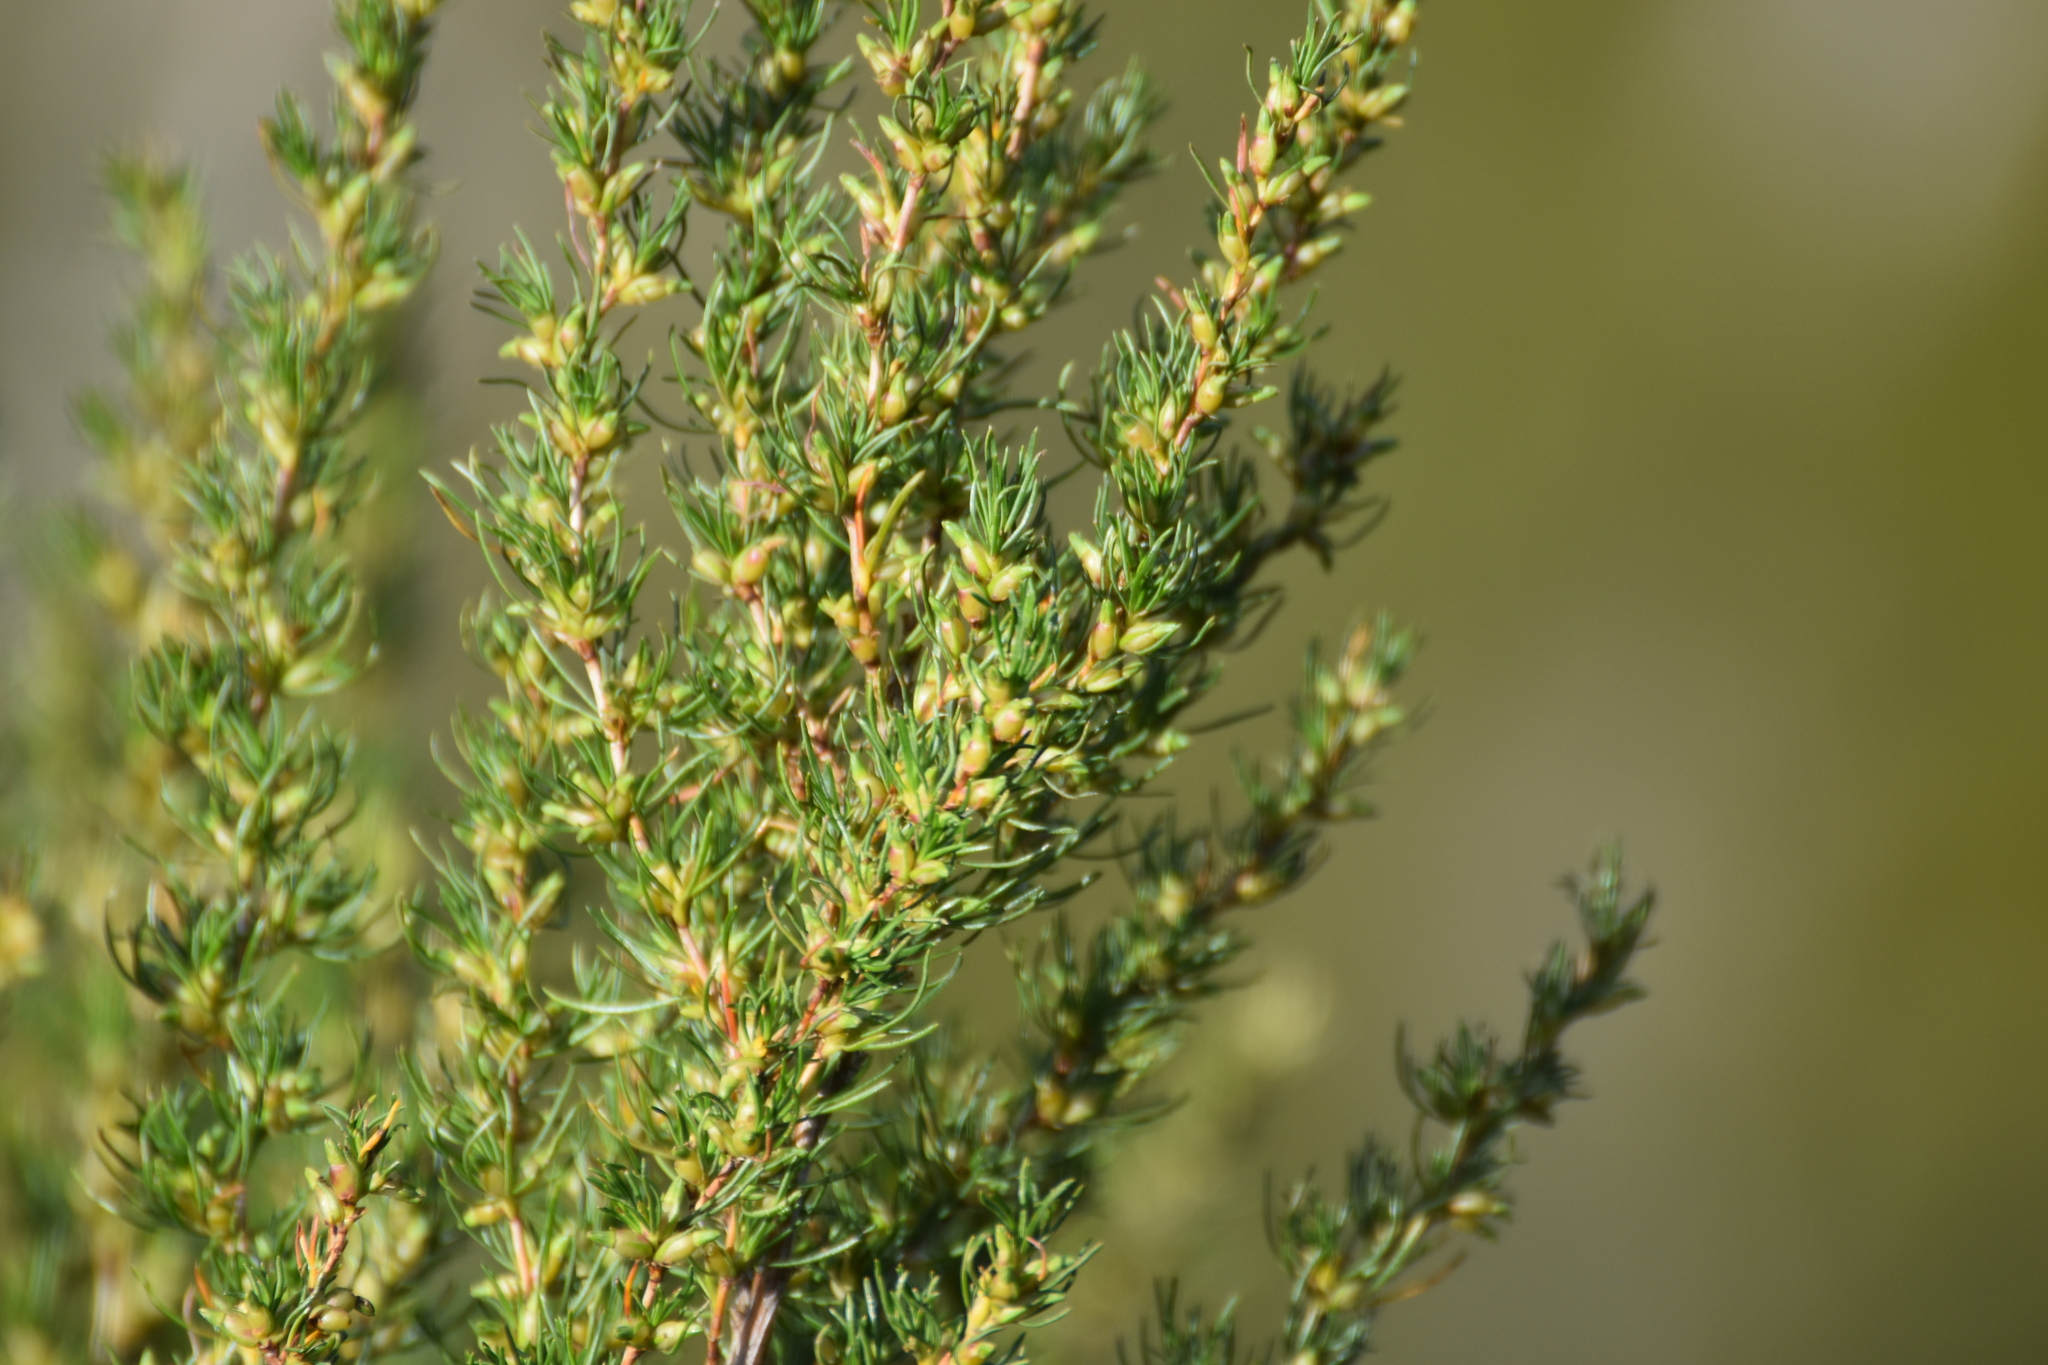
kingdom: Plantae
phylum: Tracheophyta
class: Magnoliopsida
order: Rosales
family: Rosaceae
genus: Cliffortia
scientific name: Cliffortia burchellii
